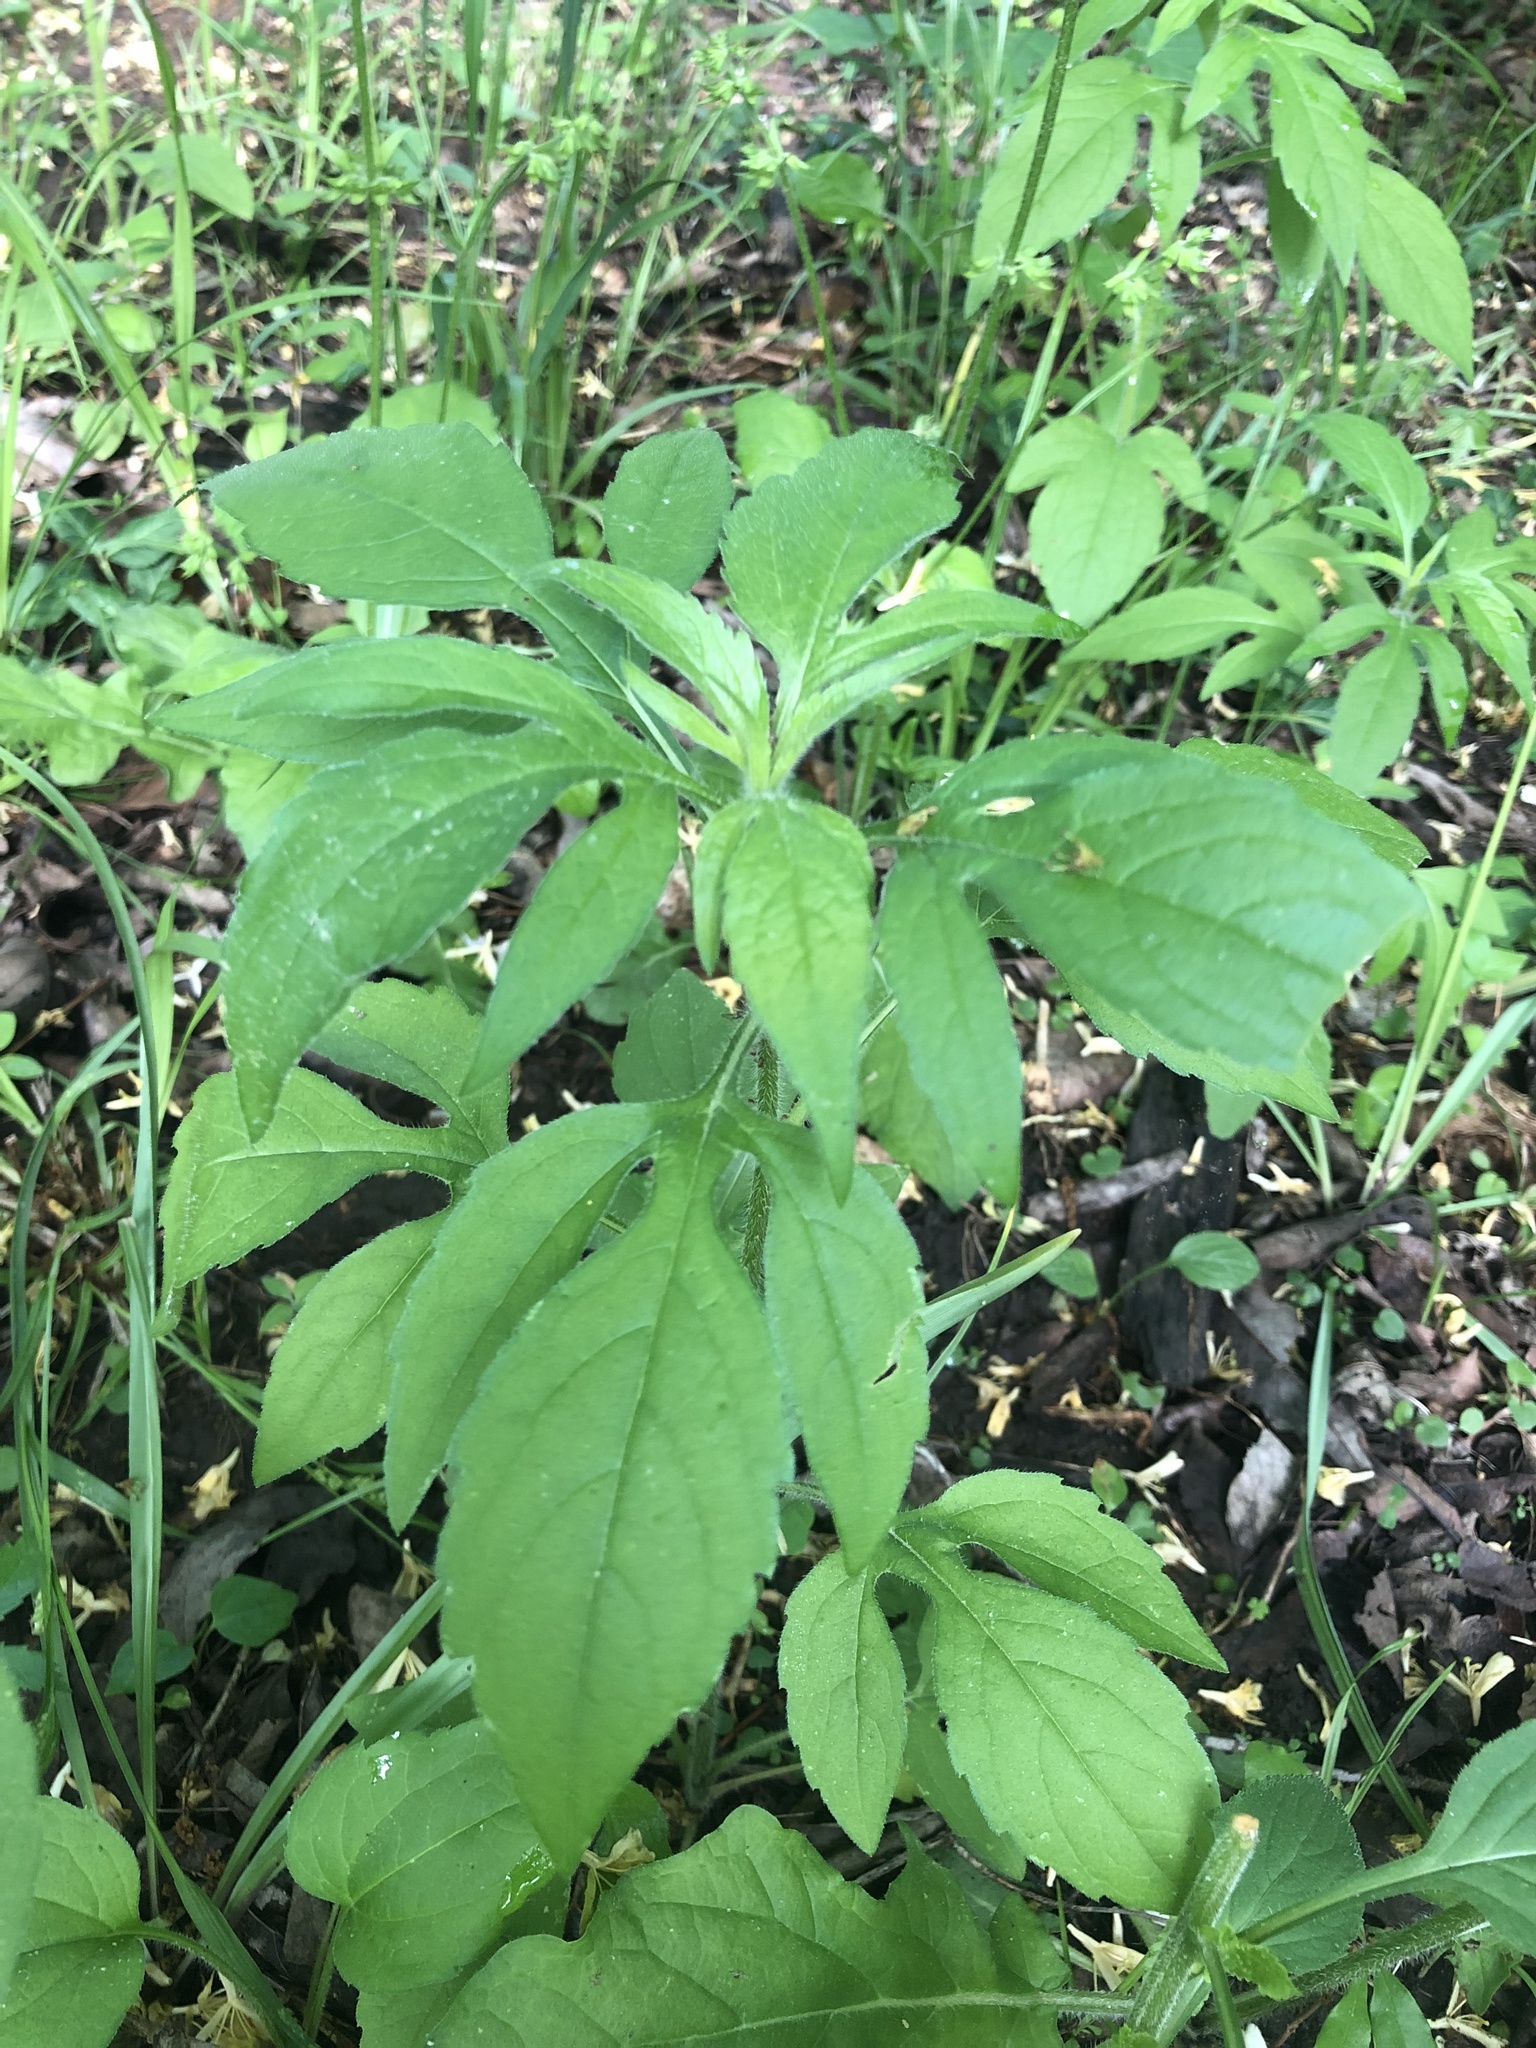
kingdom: Plantae
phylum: Tracheophyta
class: Magnoliopsida
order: Asterales
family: Asteraceae
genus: Ambrosia
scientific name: Ambrosia trifida
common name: Giant ragweed
